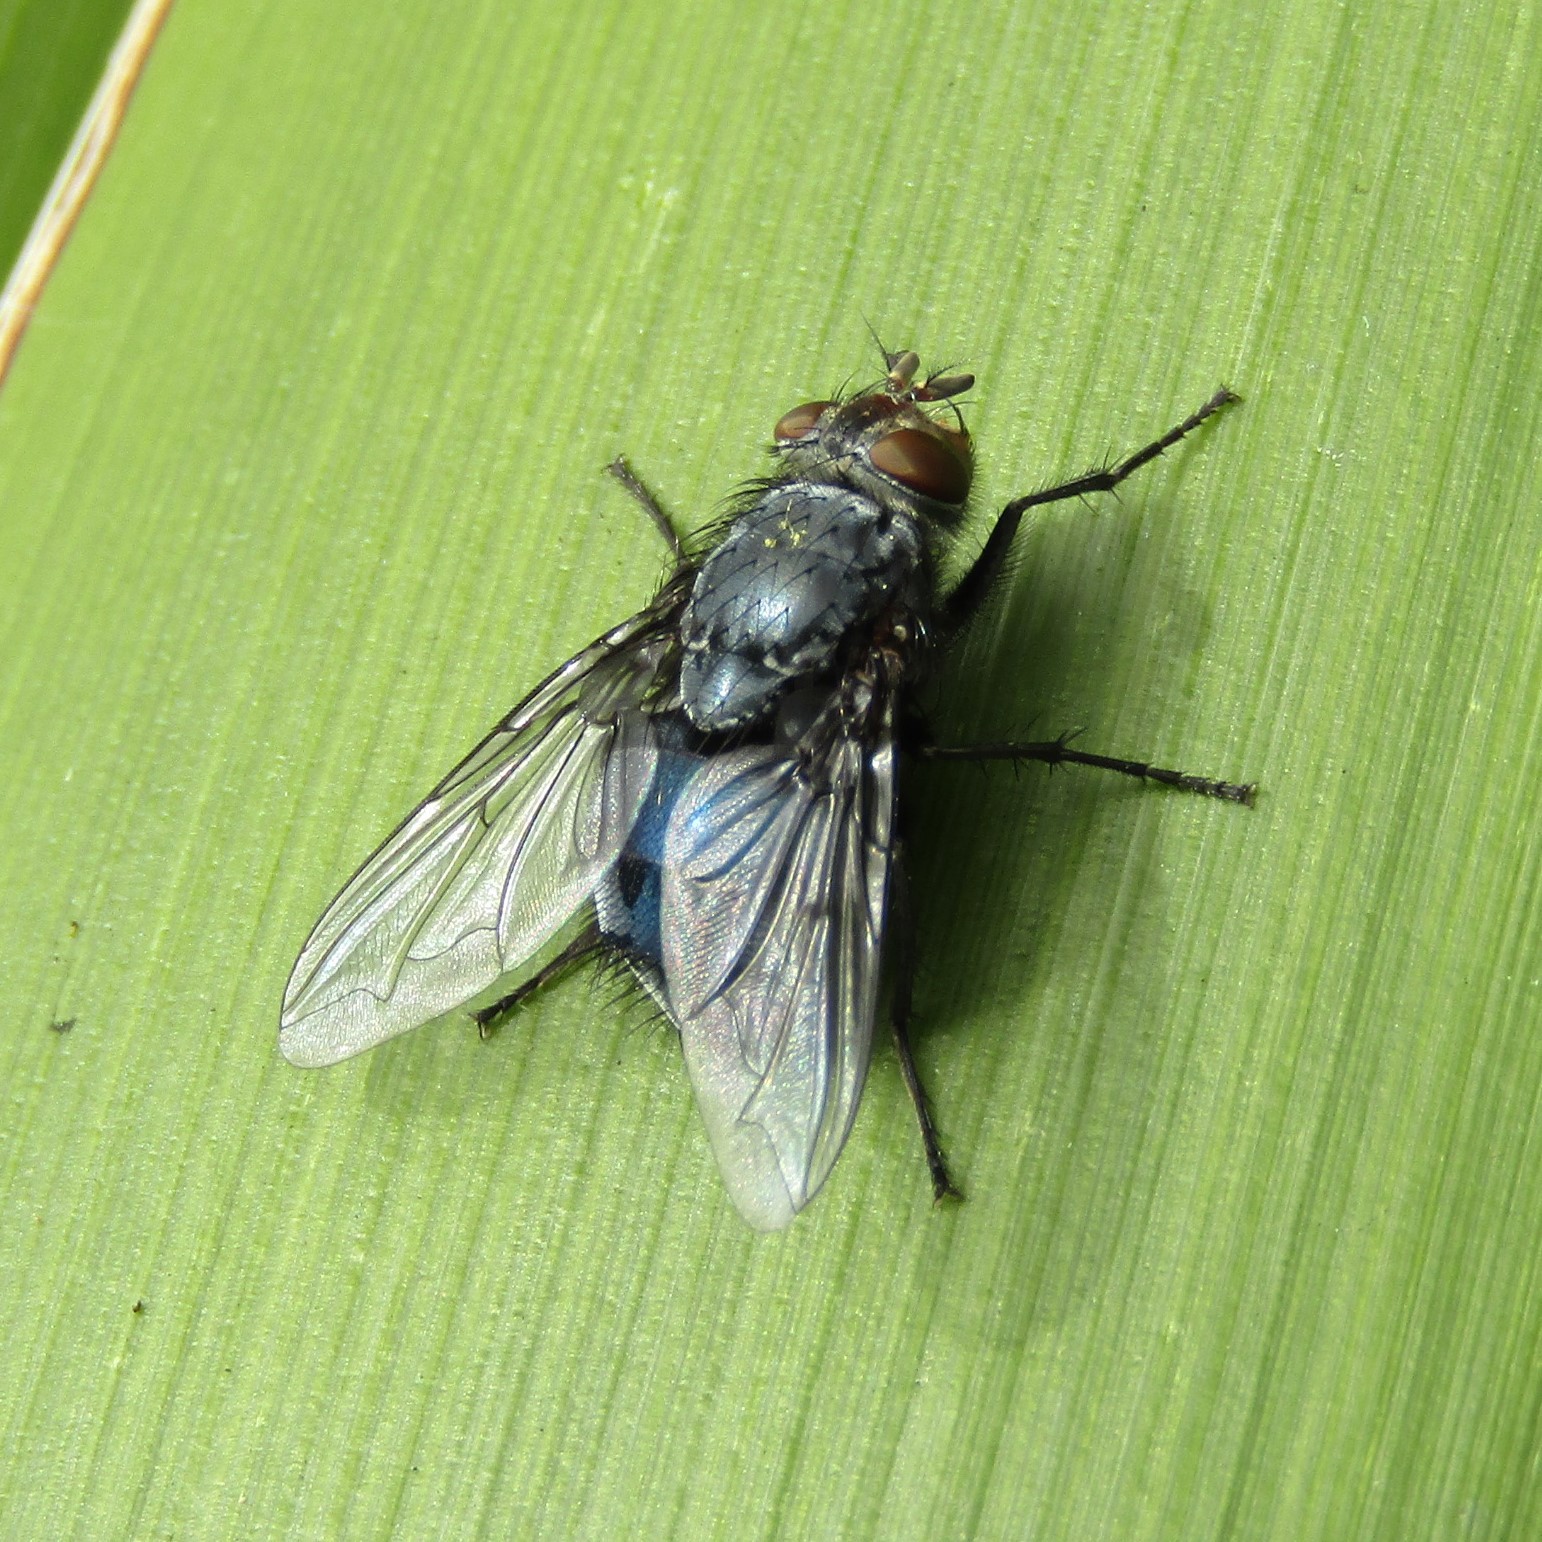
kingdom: Animalia
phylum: Arthropoda
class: Insecta
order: Diptera
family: Calliphoridae
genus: Calliphora
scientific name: Calliphora vicina
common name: Common blow flie
